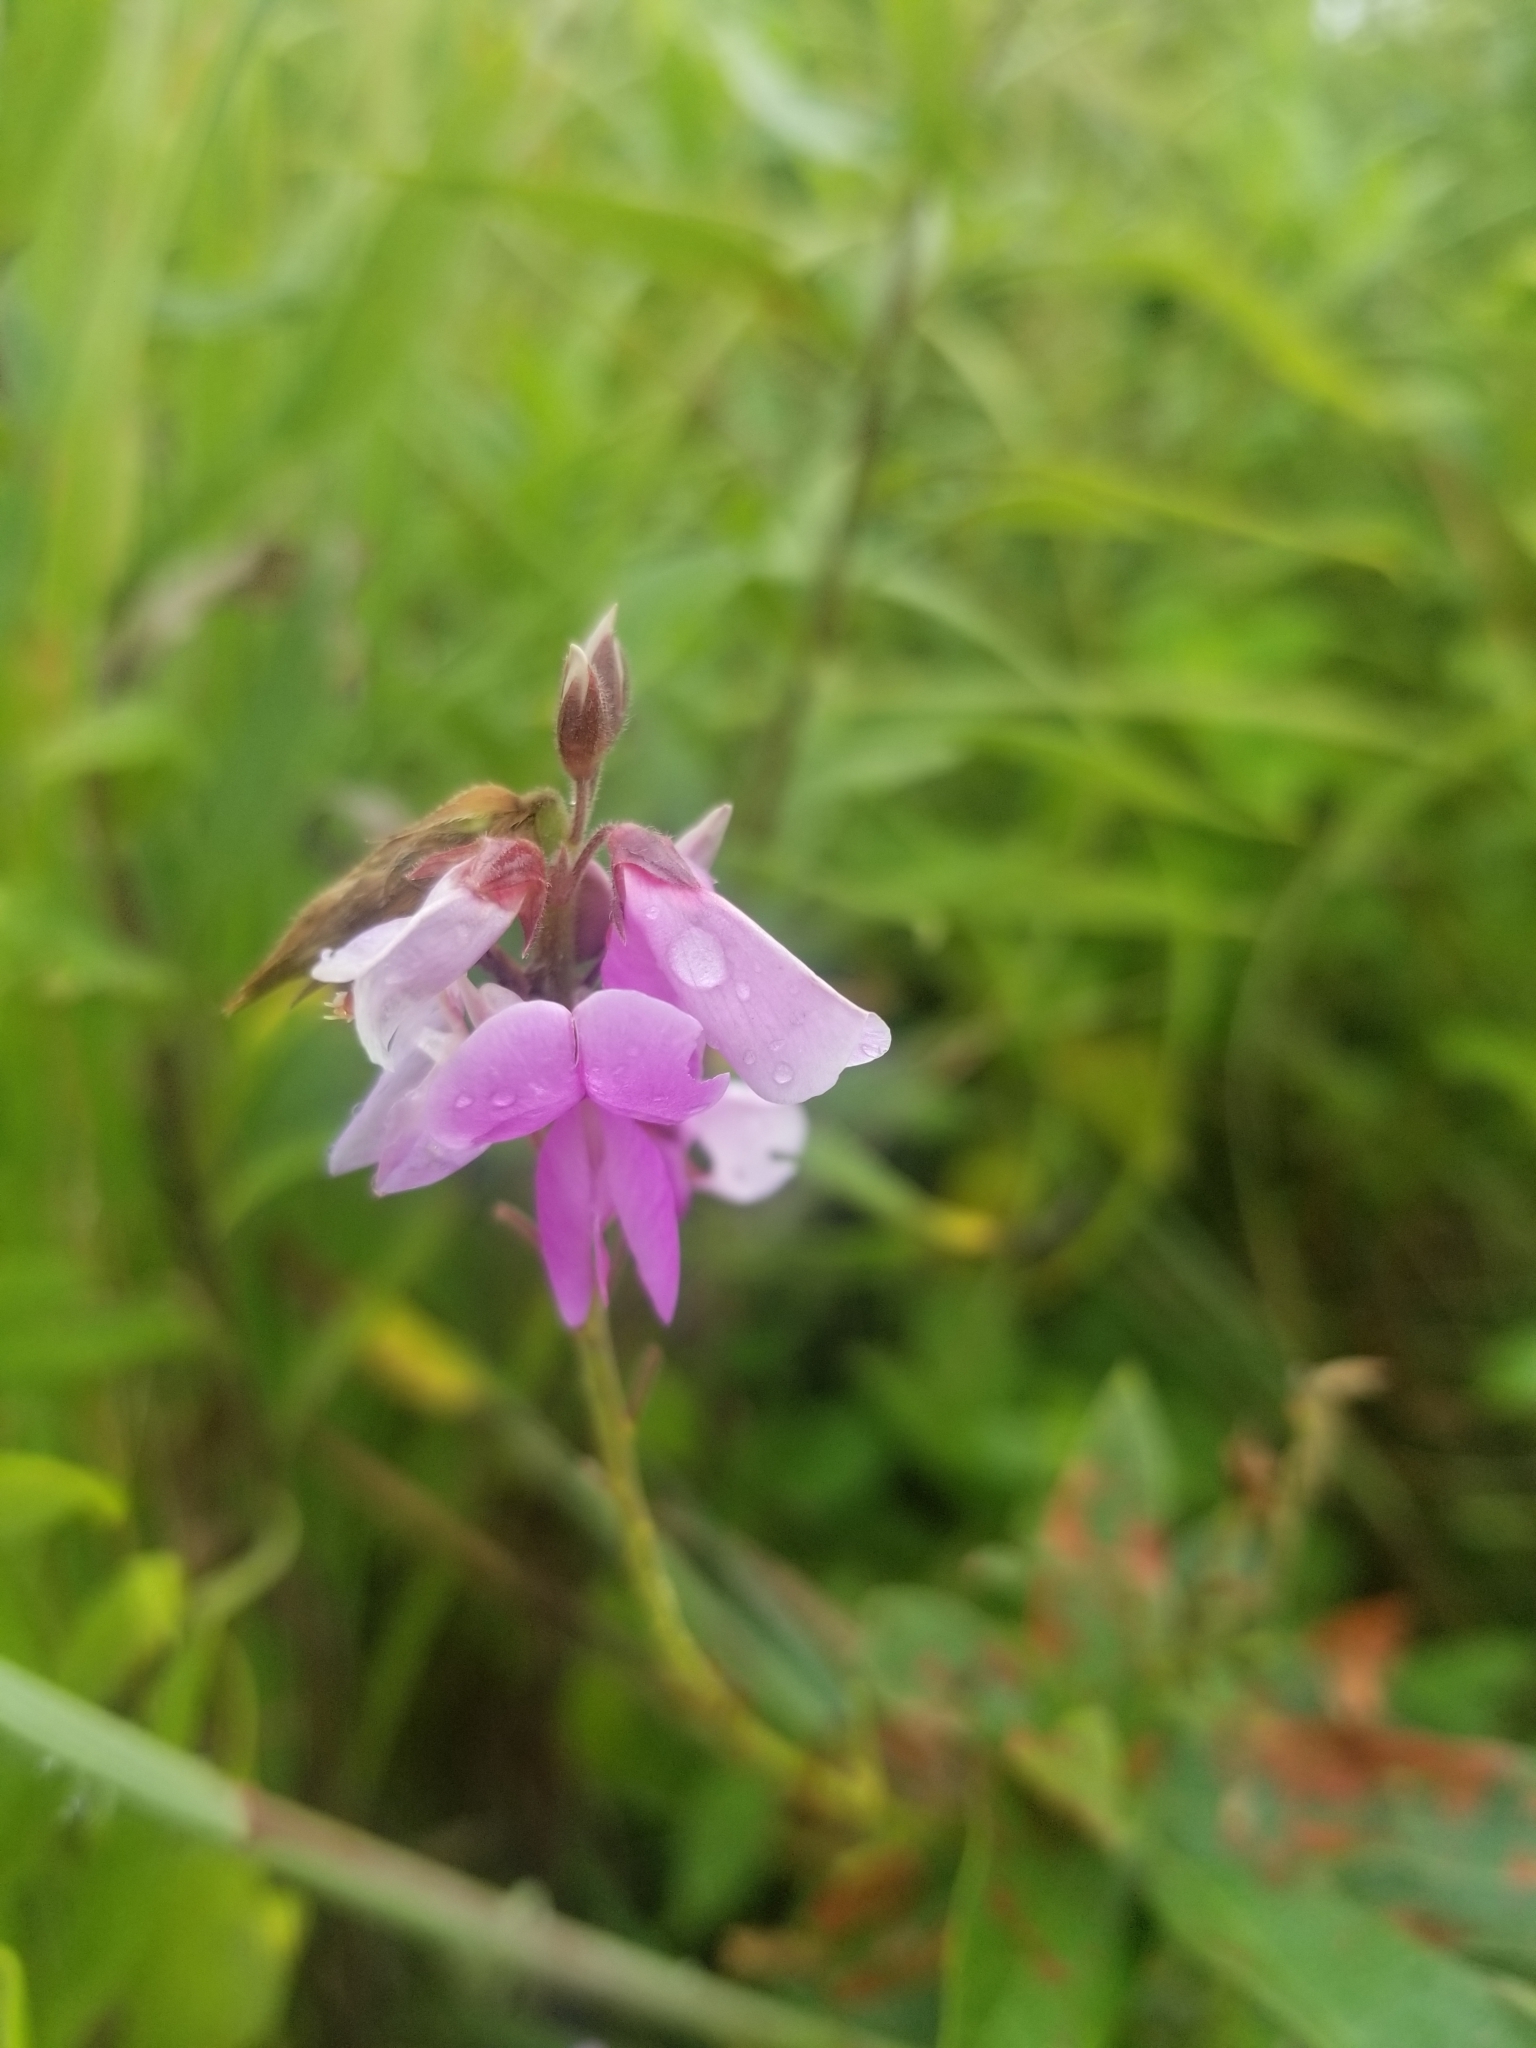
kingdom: Plantae
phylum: Tracheophyta
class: Magnoliopsida
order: Fabales
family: Fabaceae
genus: Desmodium
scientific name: Desmodium canadense
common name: Canada tick-trefoil
